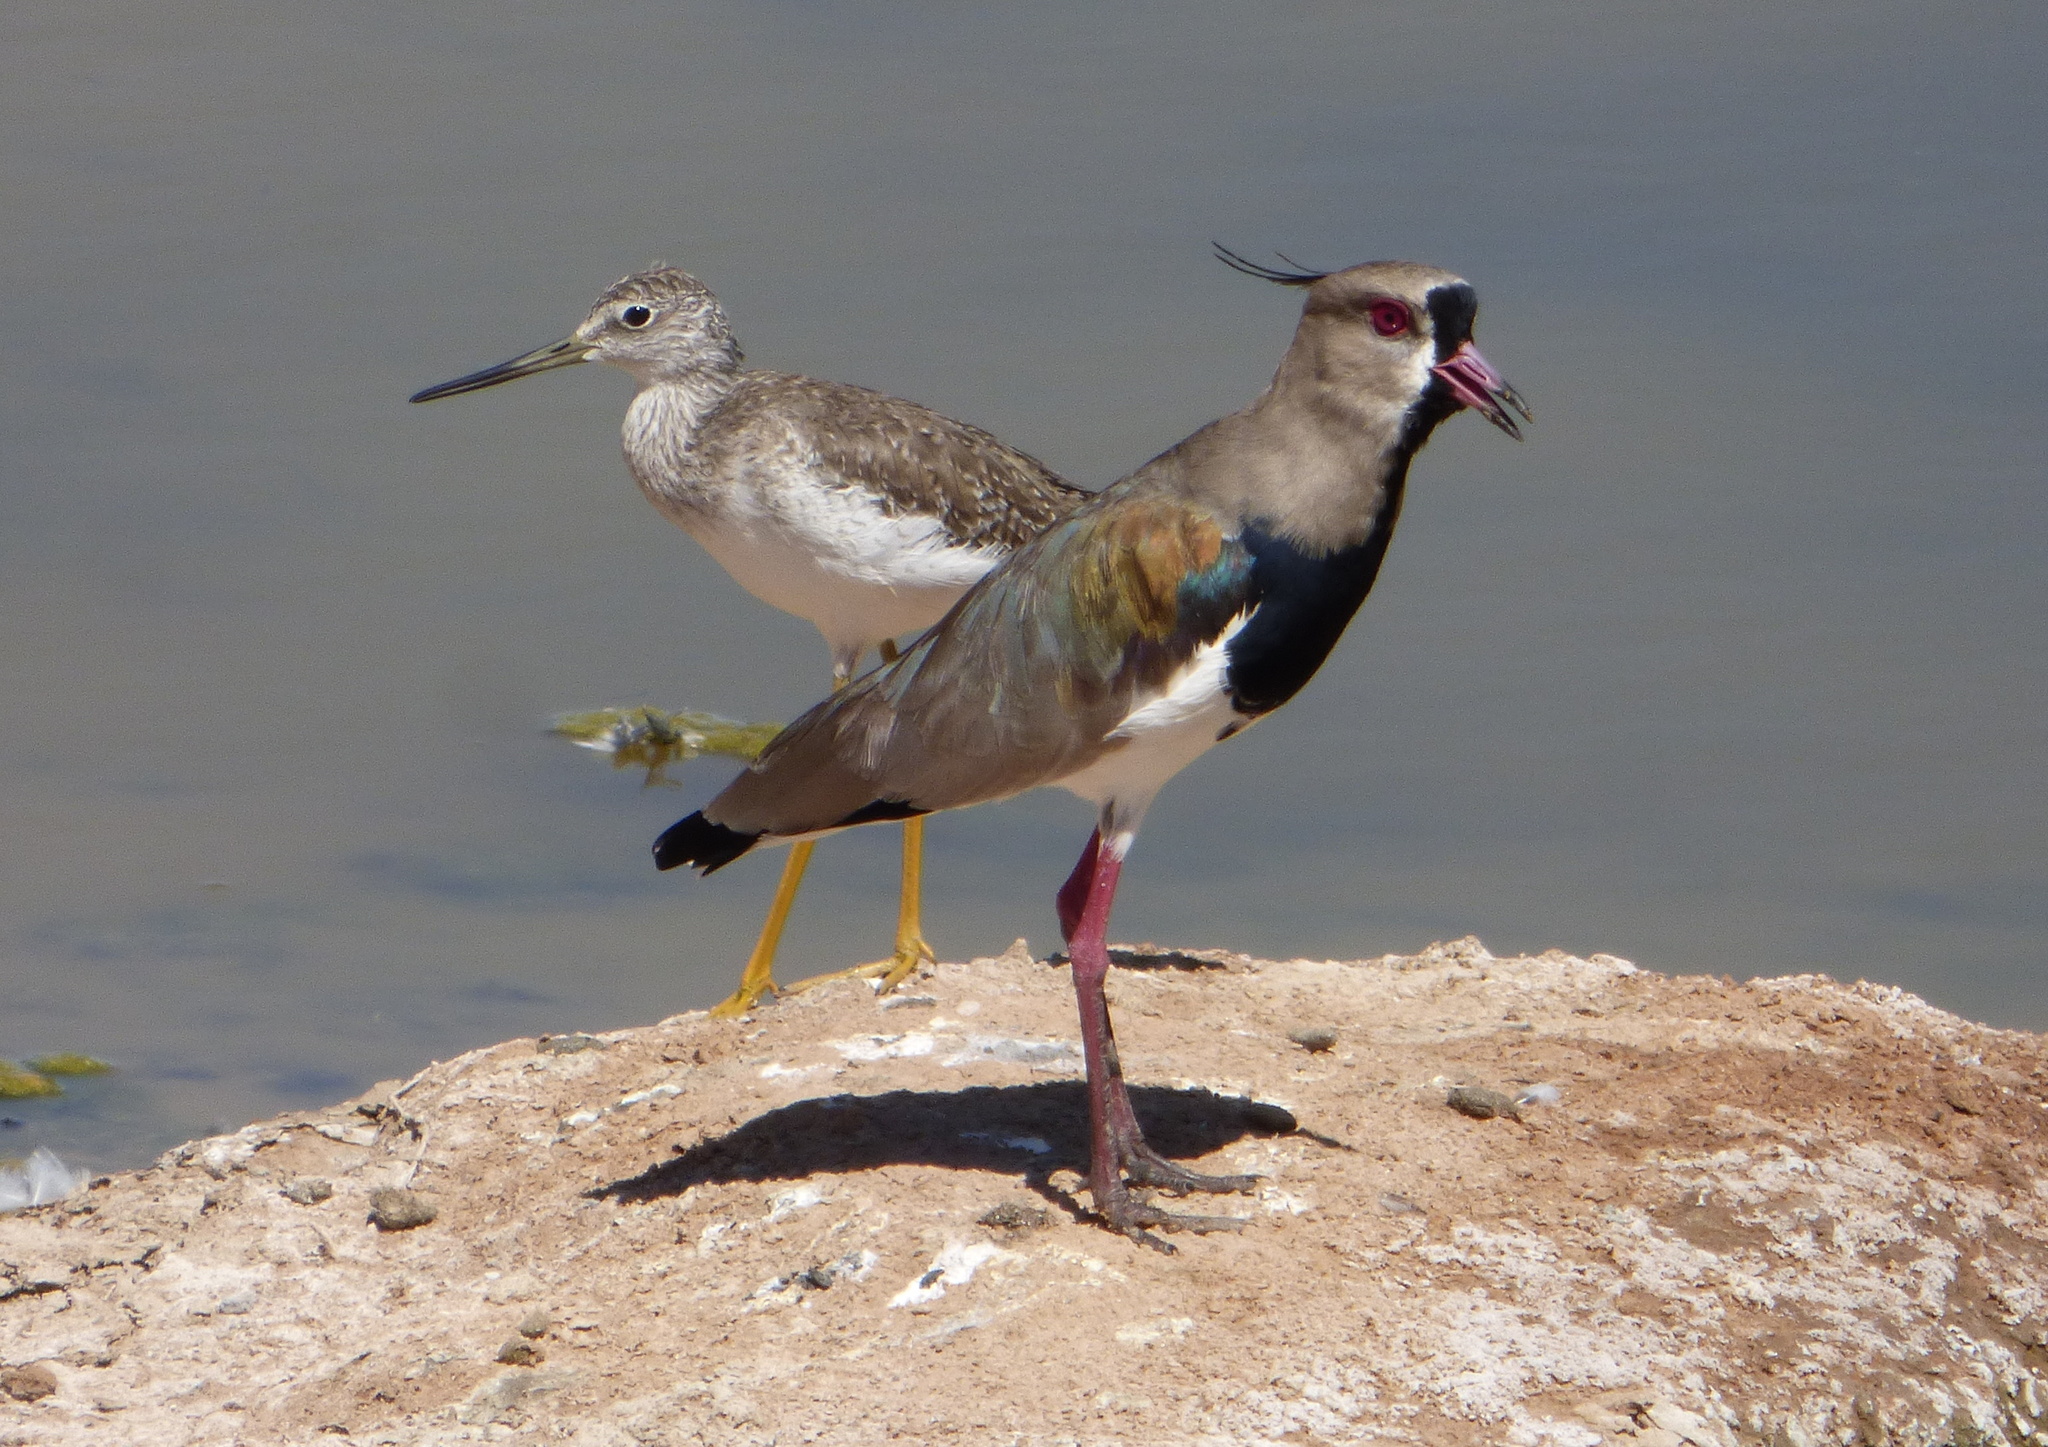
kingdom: Animalia
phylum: Chordata
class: Aves
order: Charadriiformes
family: Scolopacidae
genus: Tringa
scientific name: Tringa melanoleuca
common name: Greater yellowlegs
